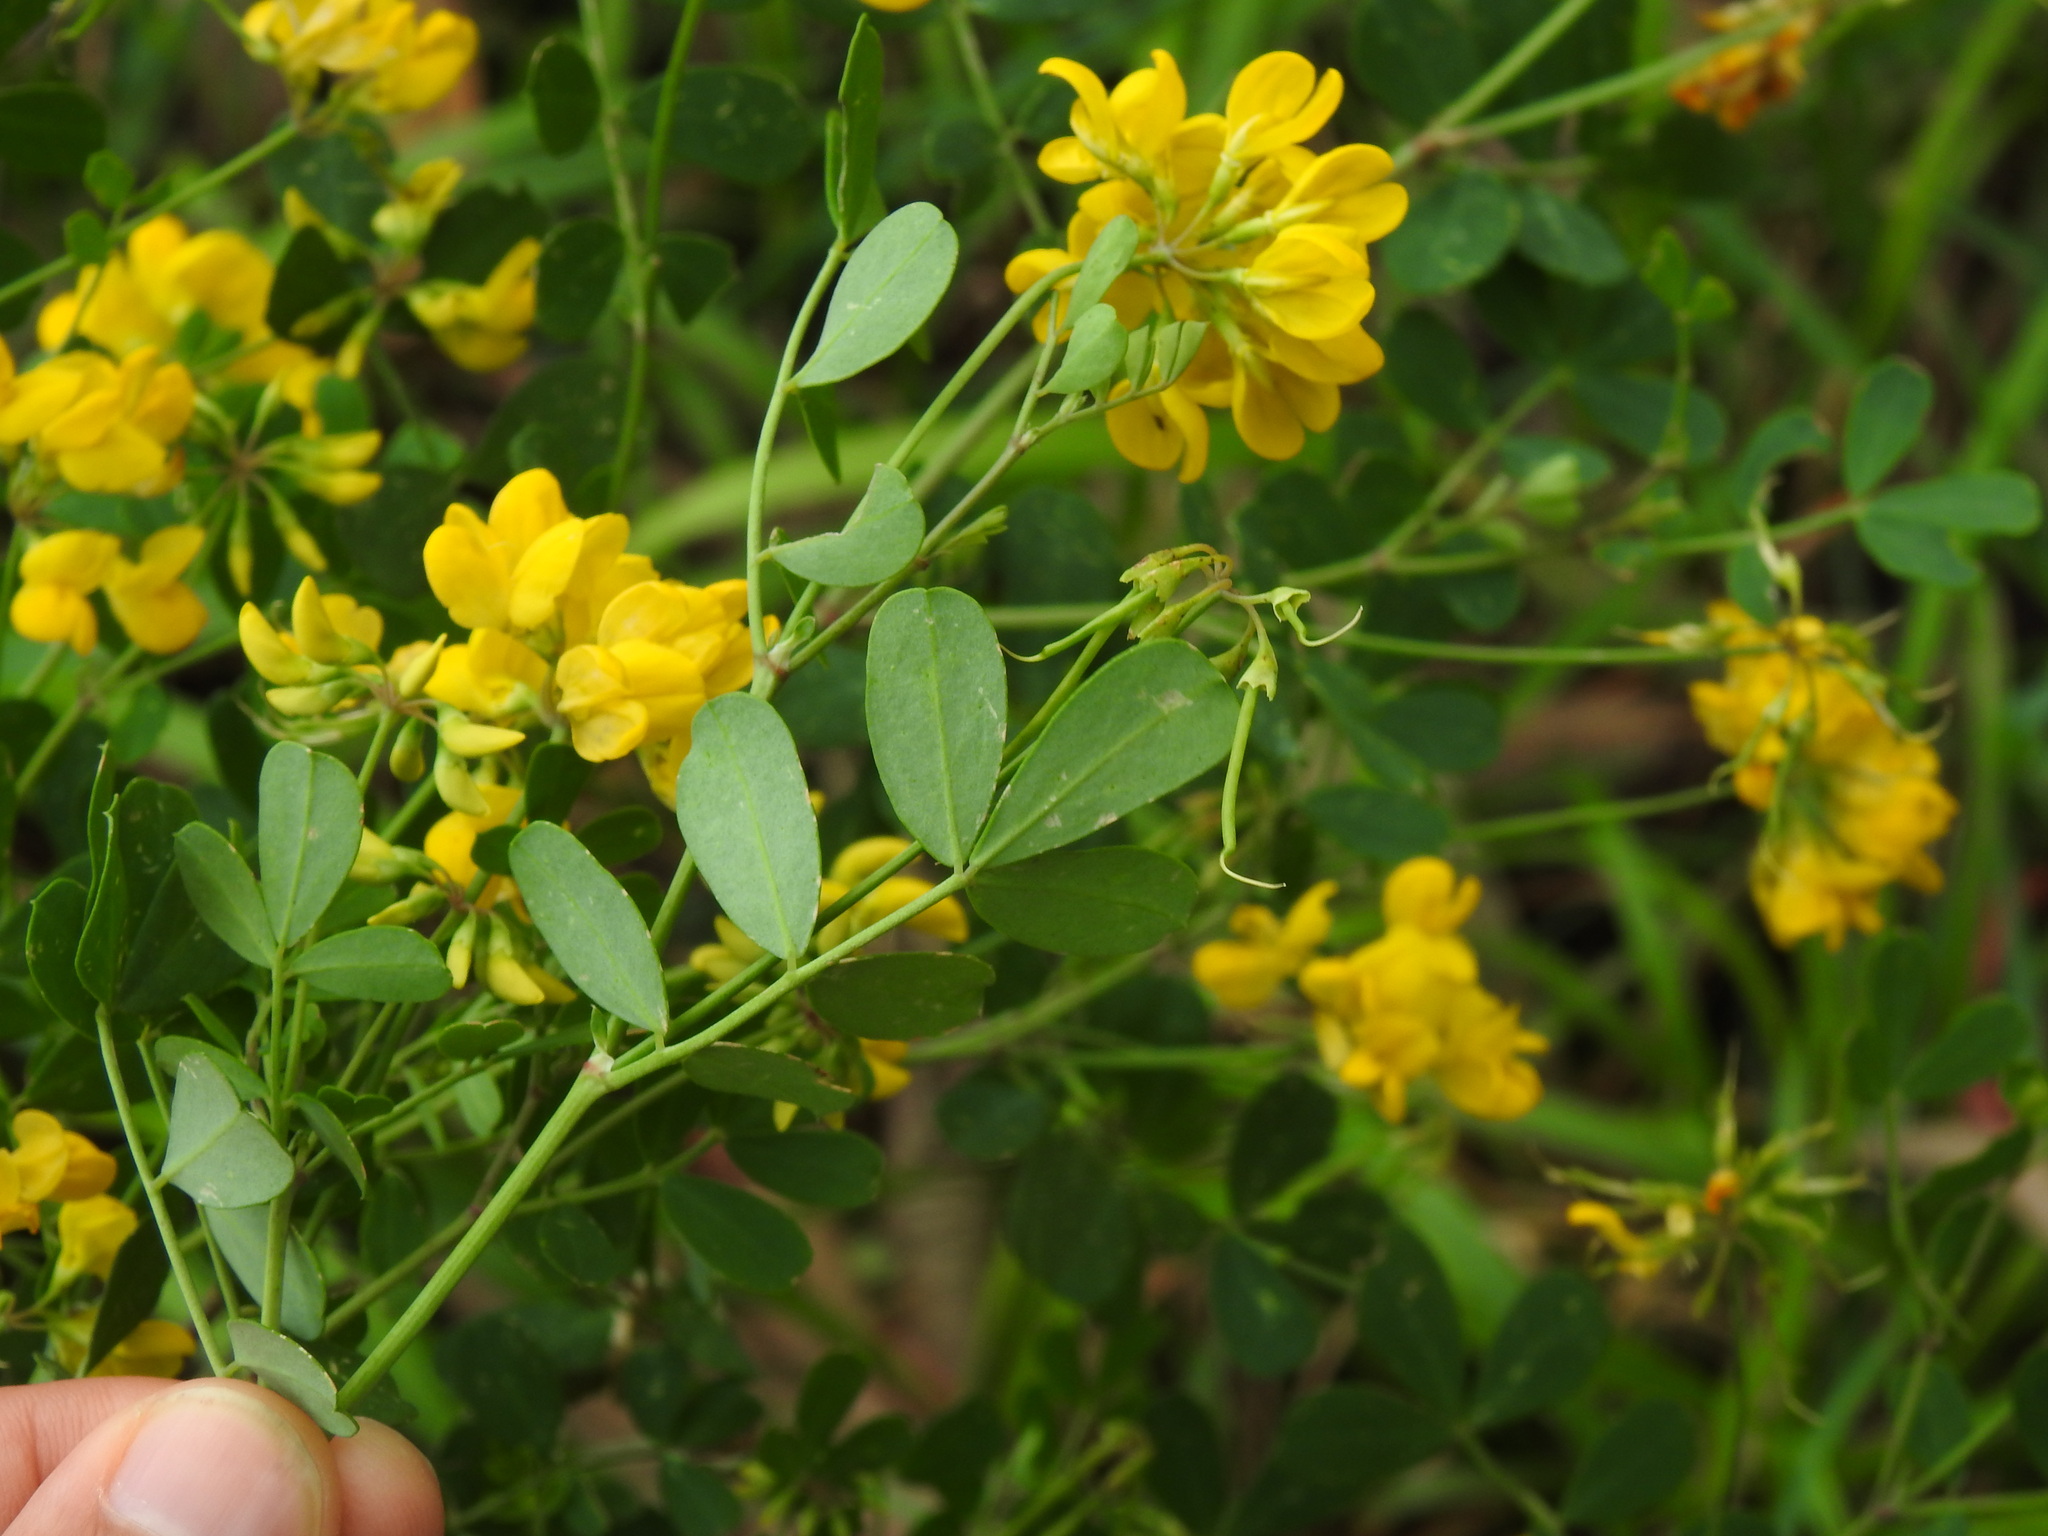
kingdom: Plantae
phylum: Tracheophyta
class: Magnoliopsida
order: Fabales
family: Fabaceae
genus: Coronilla
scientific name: Coronilla valentina
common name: Shrubby scorpion-vetch
